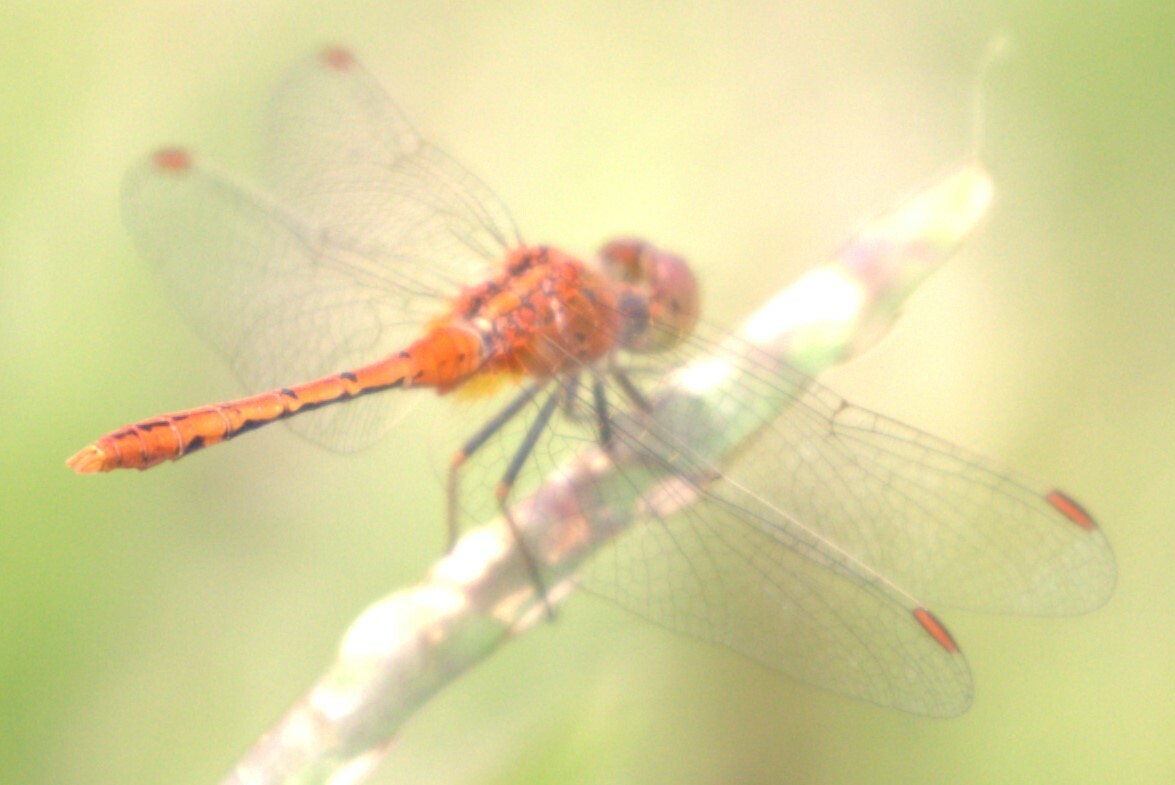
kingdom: Animalia
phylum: Arthropoda
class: Insecta
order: Odonata
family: Libellulidae
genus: Diplacodes
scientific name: Diplacodes bipunctata
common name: Red percher dragonfly
